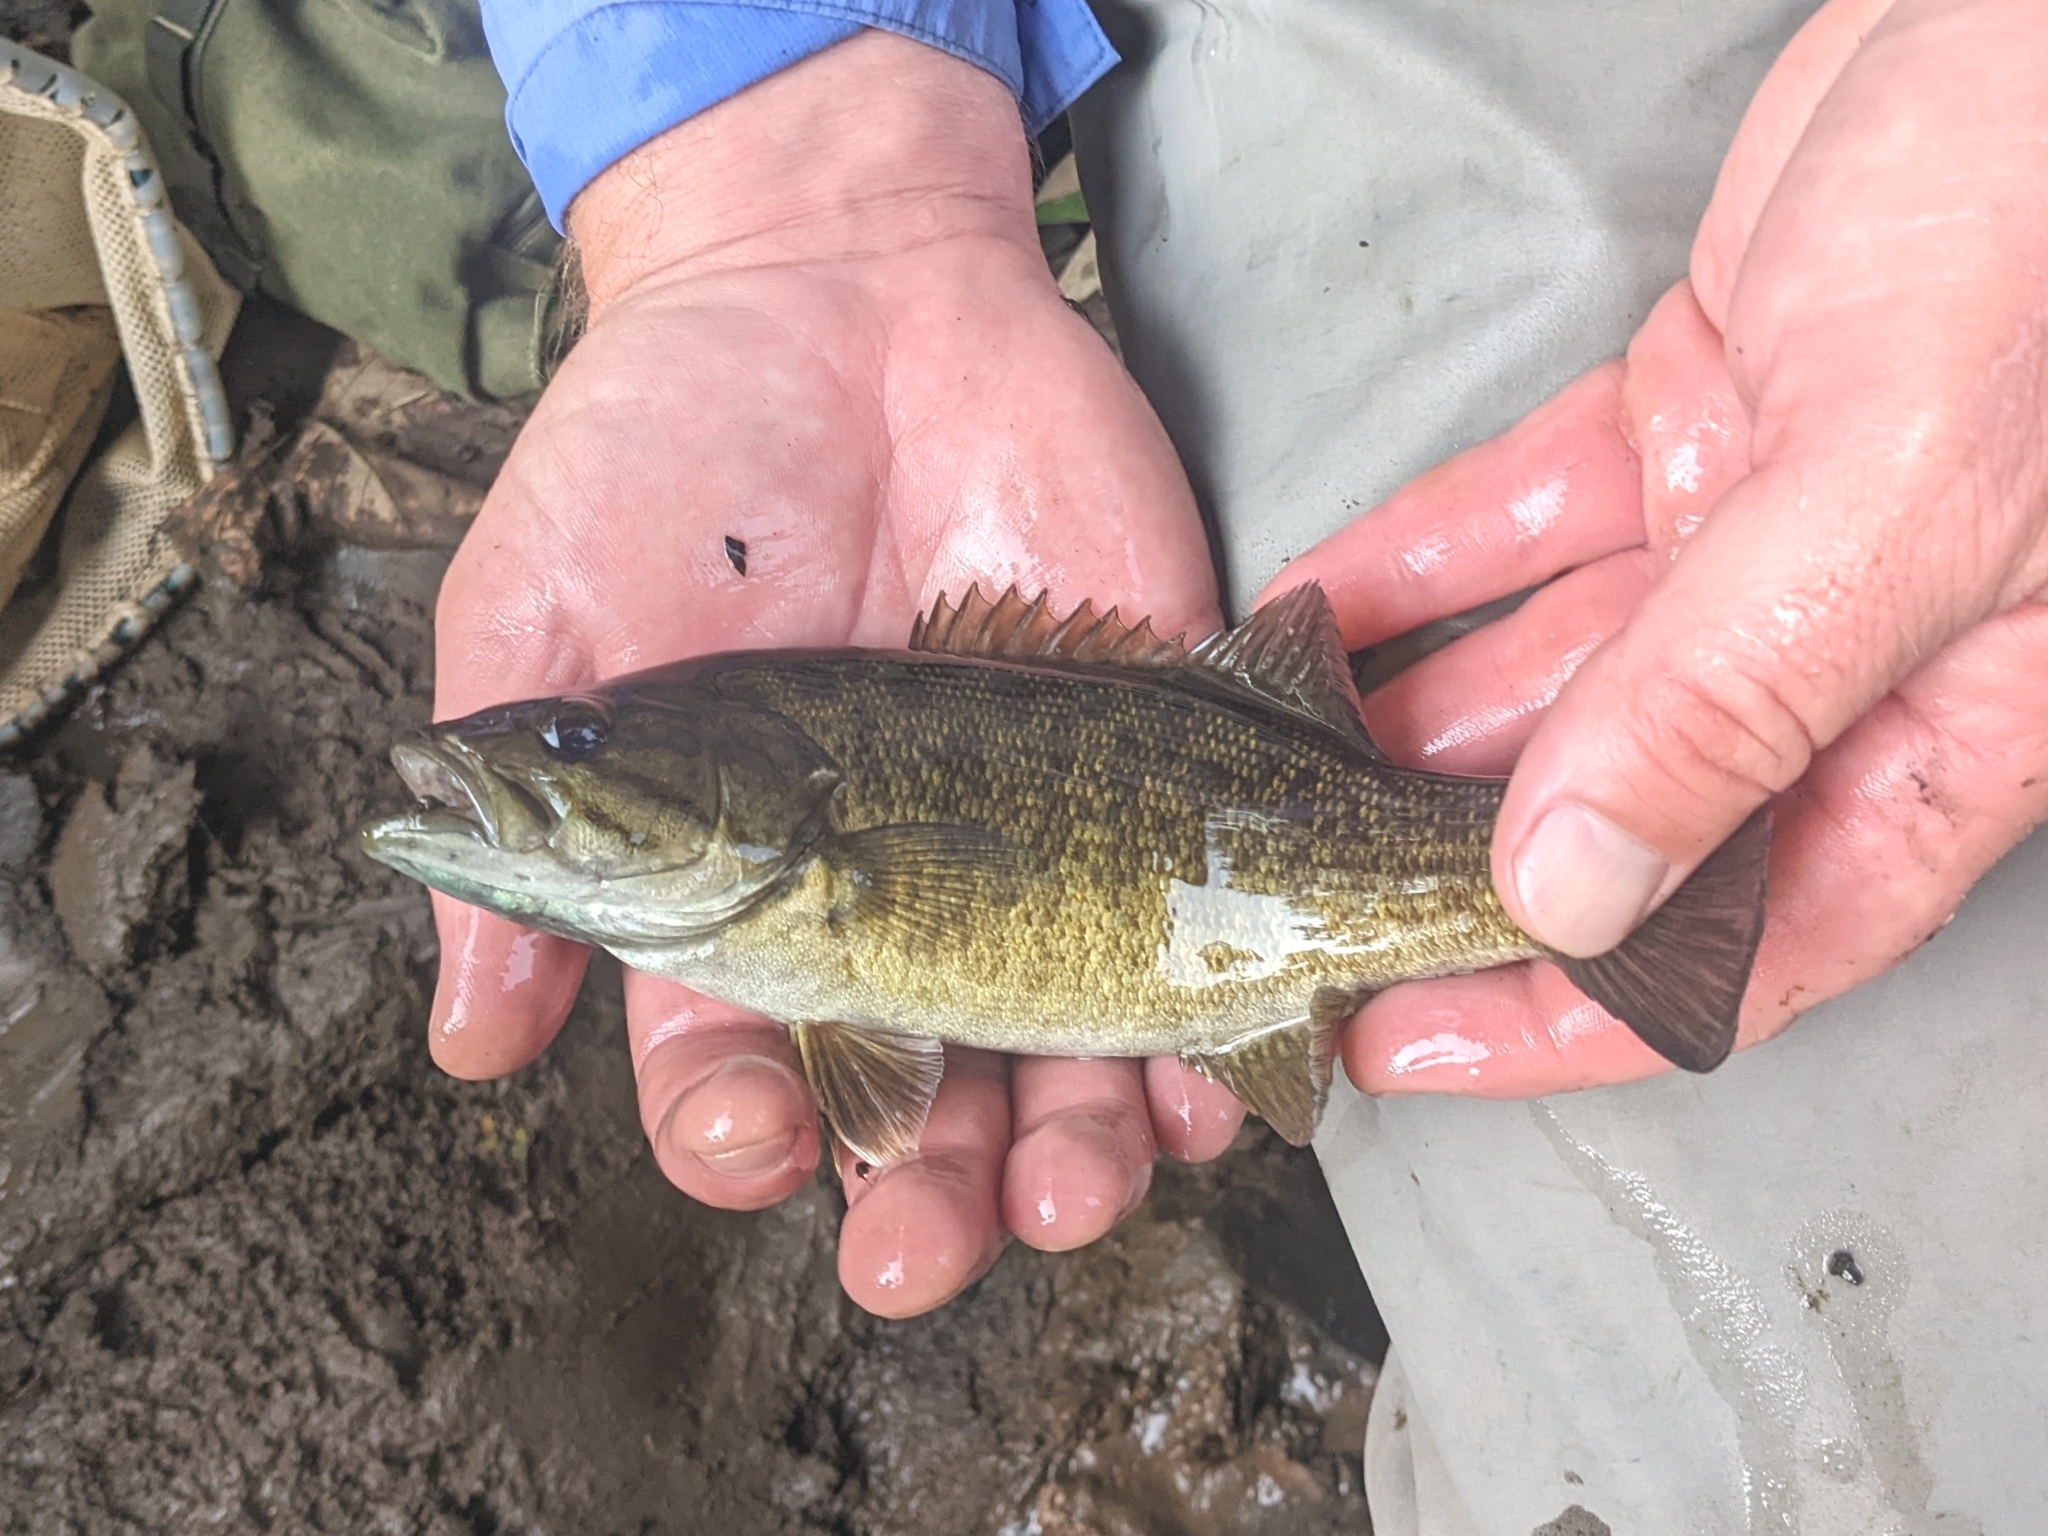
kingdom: Animalia
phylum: Chordata
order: Perciformes
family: Centrarchidae
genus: Micropterus
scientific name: Micropterus dolomieu
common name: Smallmouth bass
